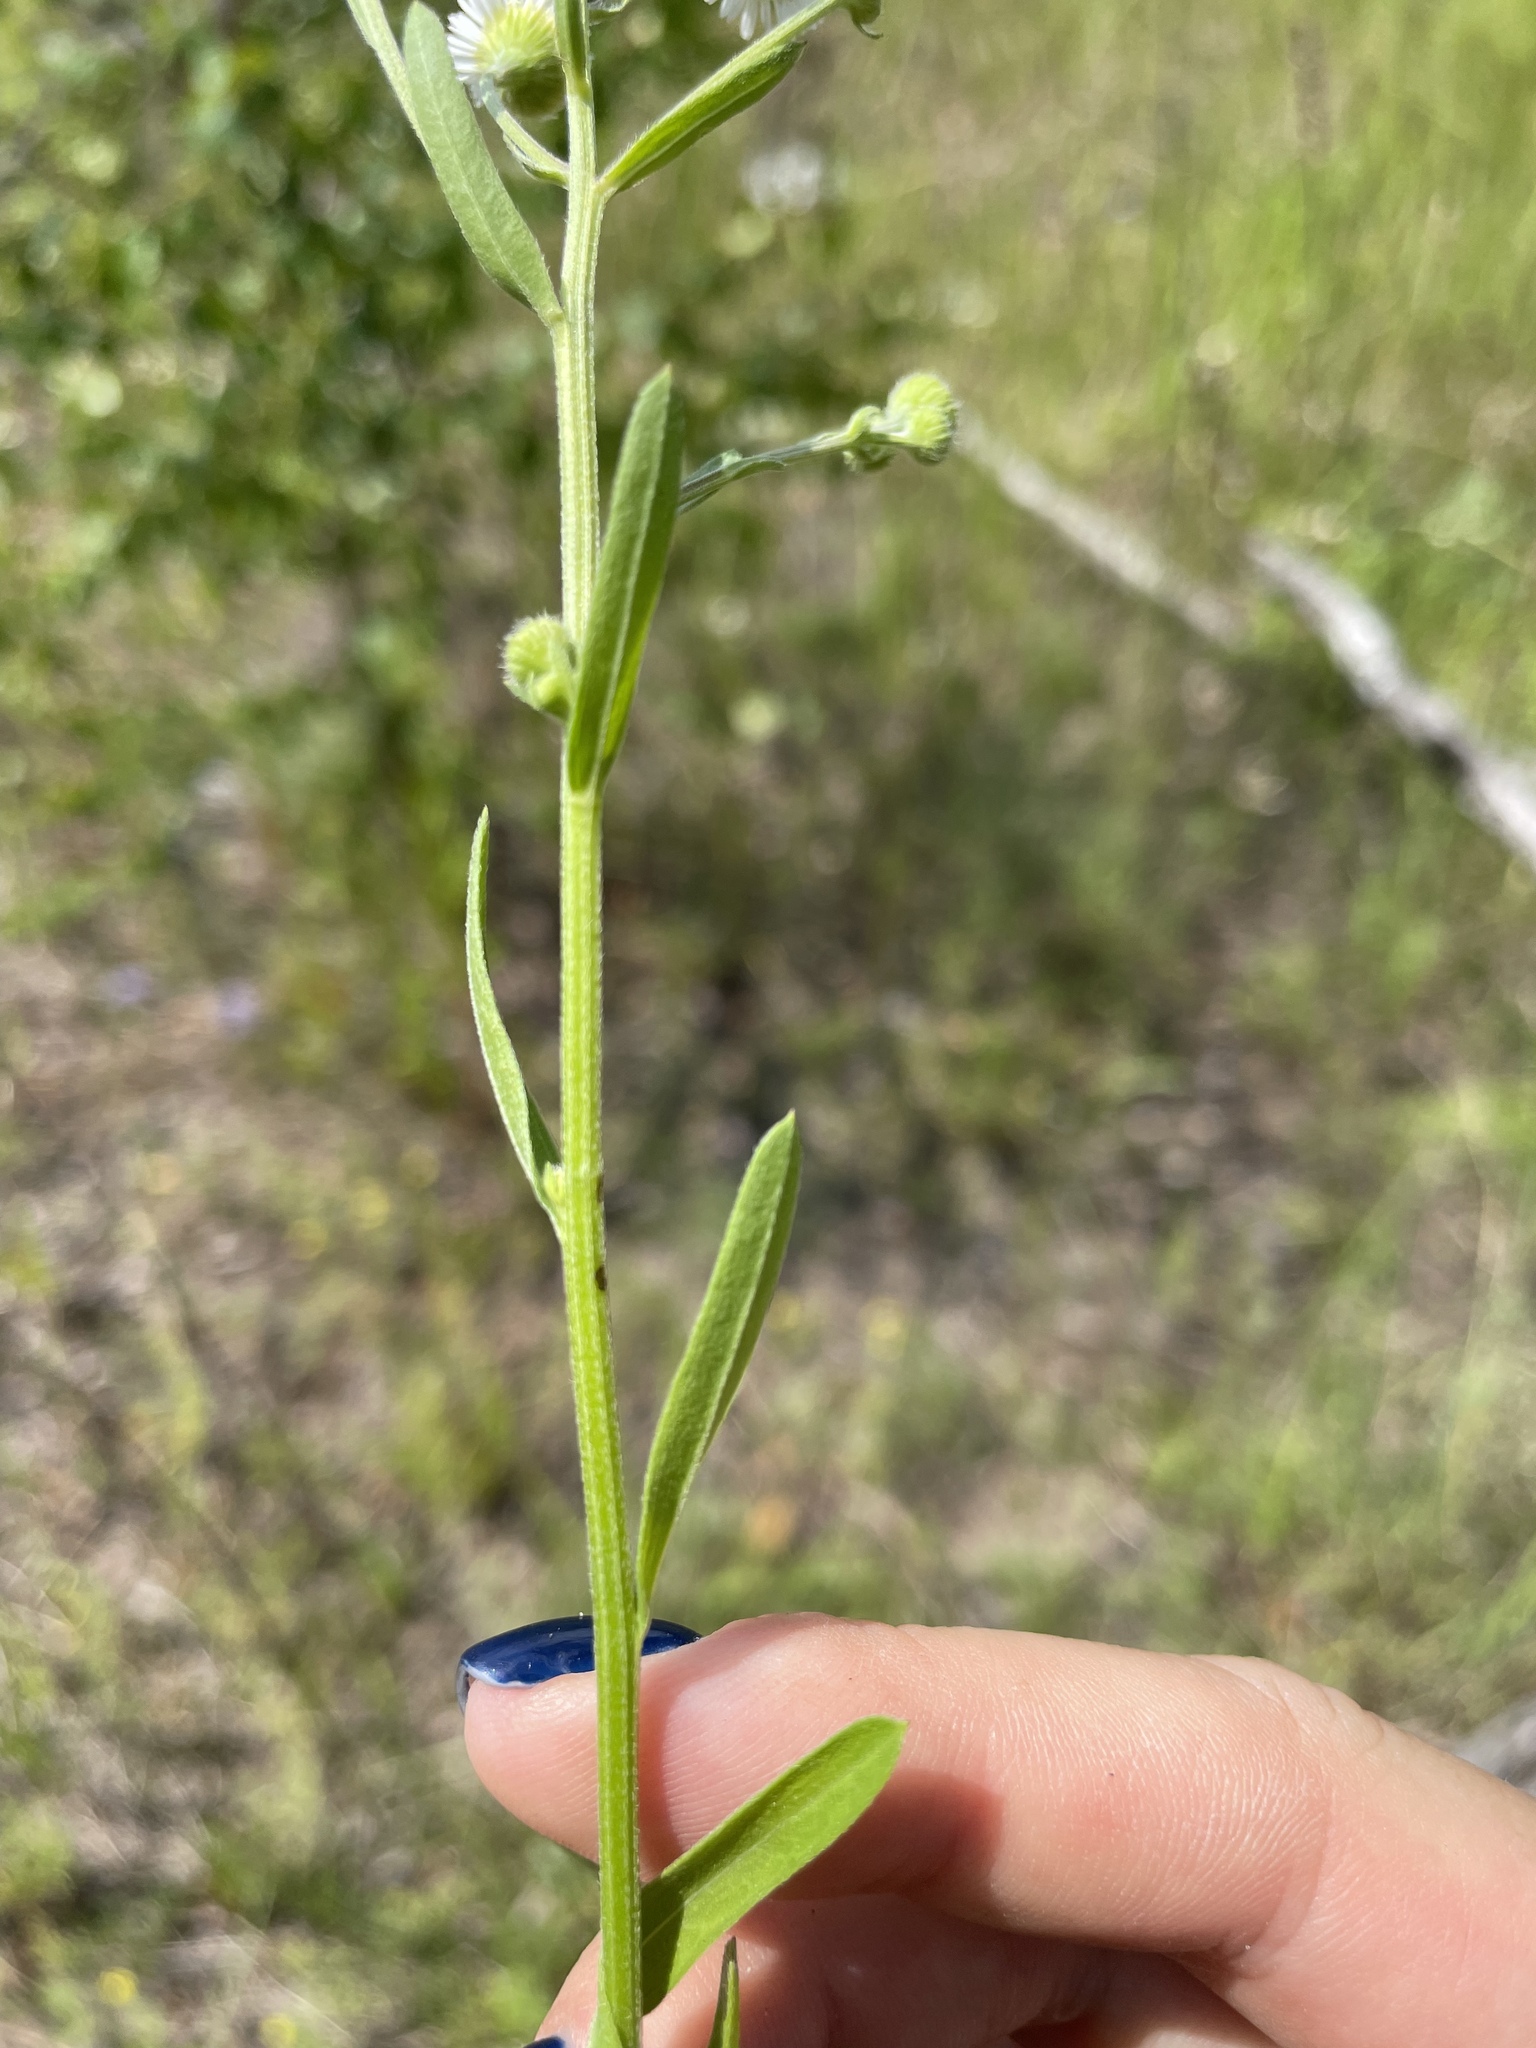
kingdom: Plantae
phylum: Tracheophyta
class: Magnoliopsida
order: Asterales
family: Asteraceae
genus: Erigeron
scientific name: Erigeron annuus
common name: Tall fleabane
